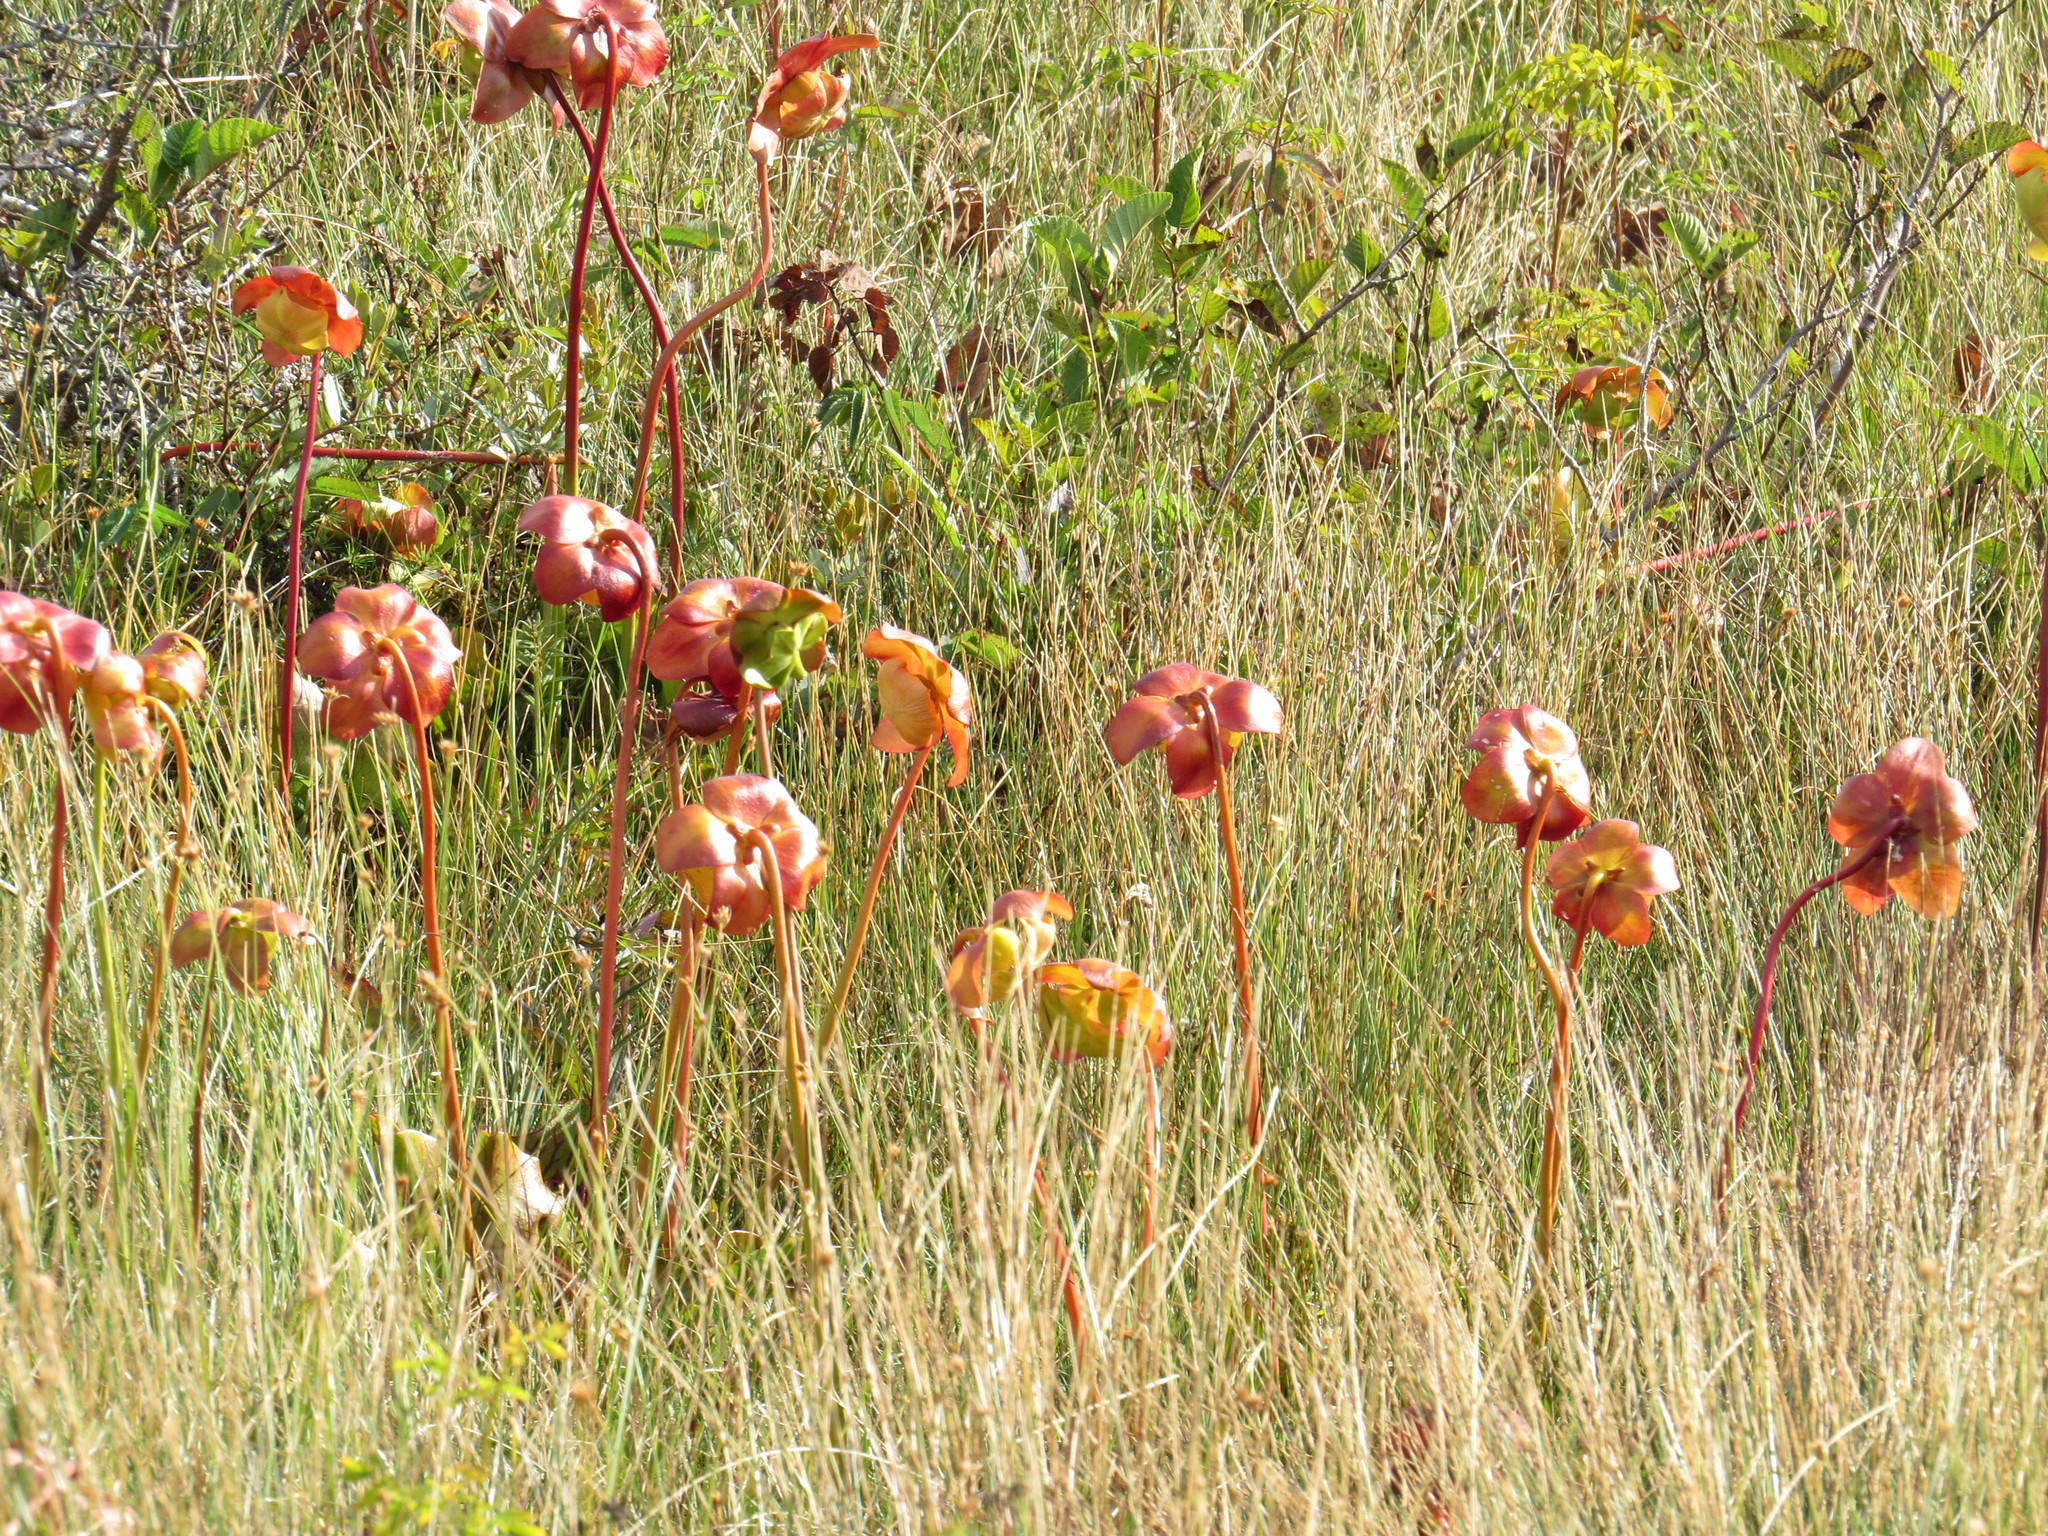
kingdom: Plantae
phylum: Tracheophyta
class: Magnoliopsida
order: Ericales
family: Sarraceniaceae
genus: Sarracenia
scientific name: Sarracenia purpurea
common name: Pitcherplant
